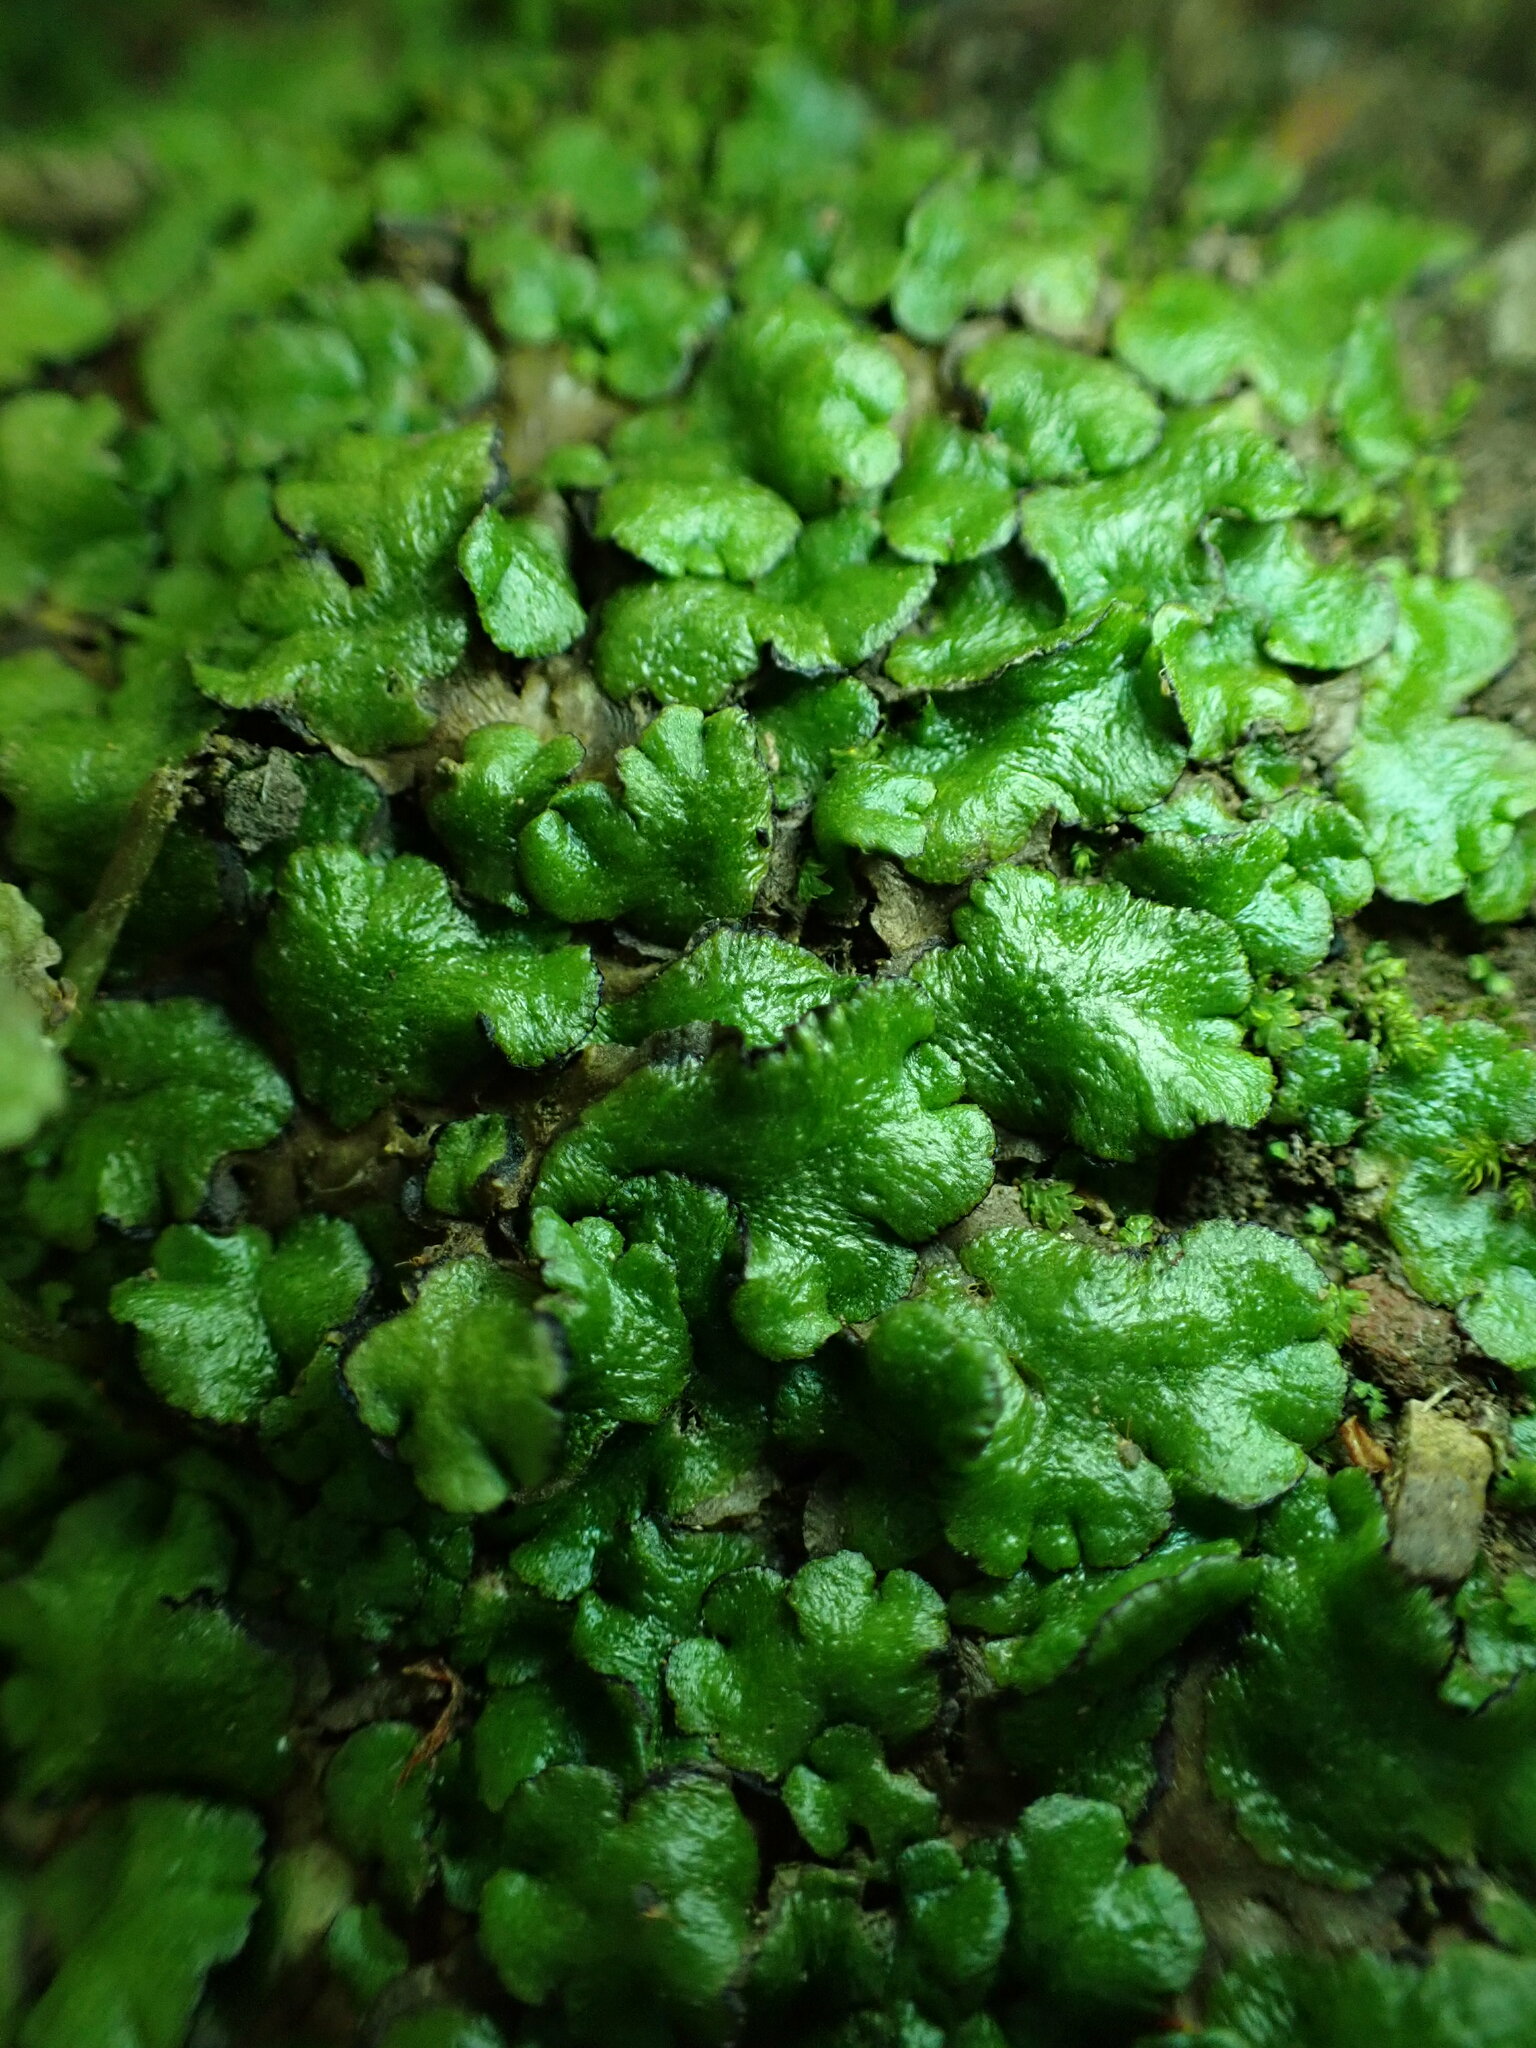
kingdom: Plantae
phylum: Marchantiophyta
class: Marchantiopsida
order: Marchantiales
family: Aytoniaceae
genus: Cryptomitrium
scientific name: Cryptomitrium tenerum
